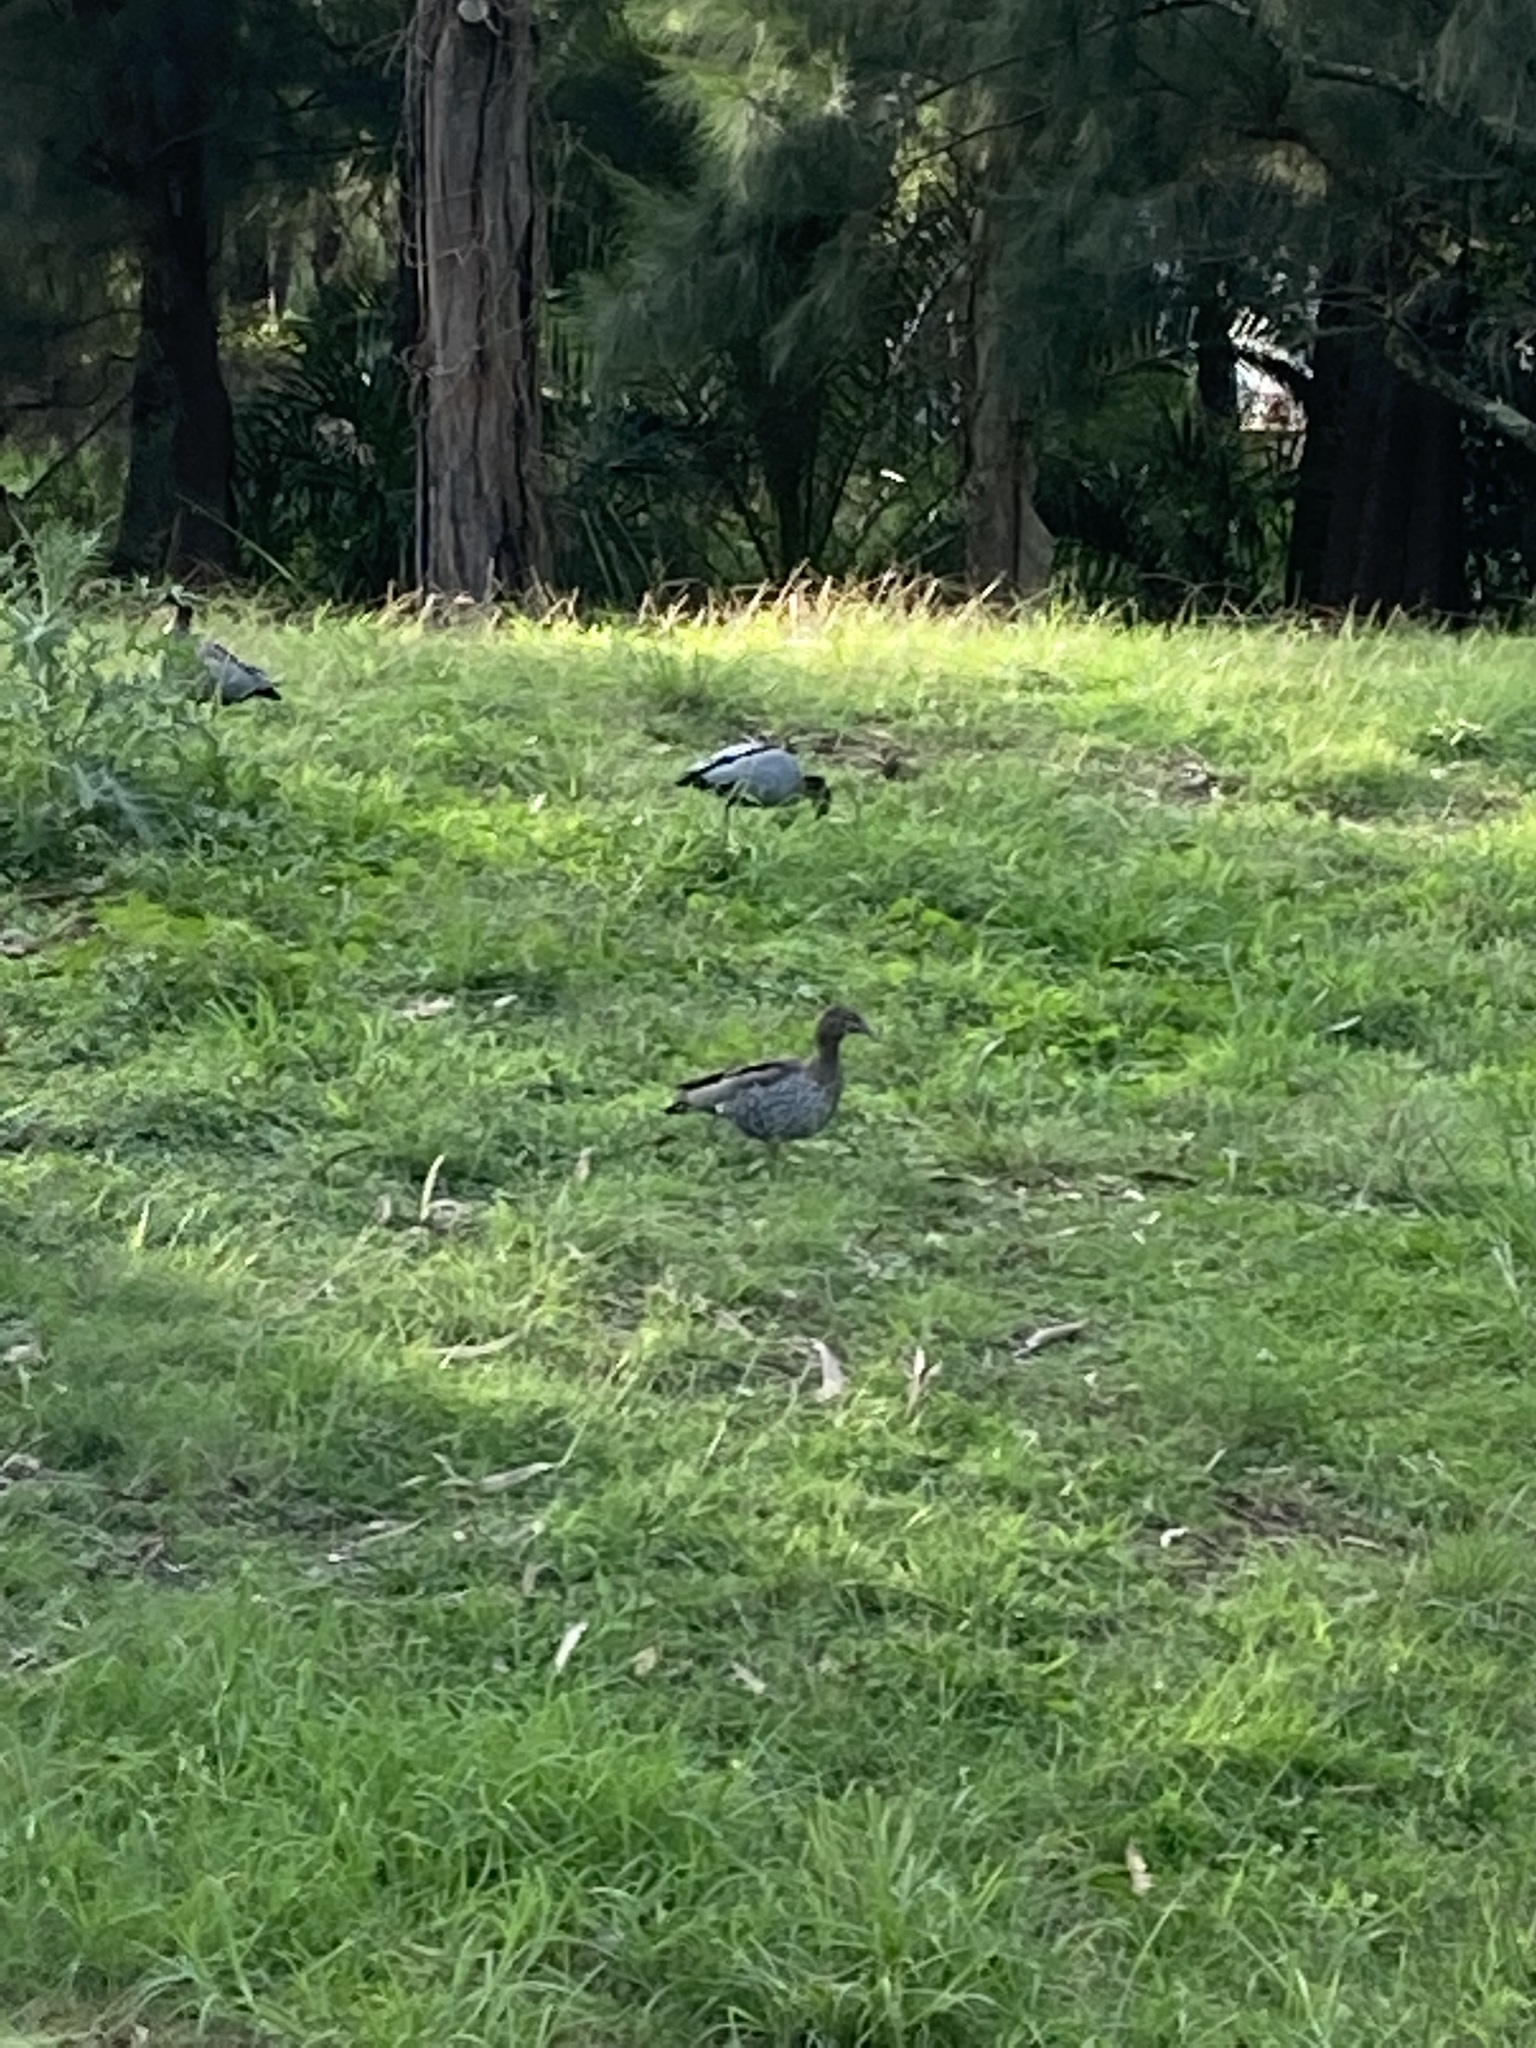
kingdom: Animalia
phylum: Chordata
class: Aves
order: Anseriformes
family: Anatidae
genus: Chenonetta
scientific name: Chenonetta jubata
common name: Maned duck
